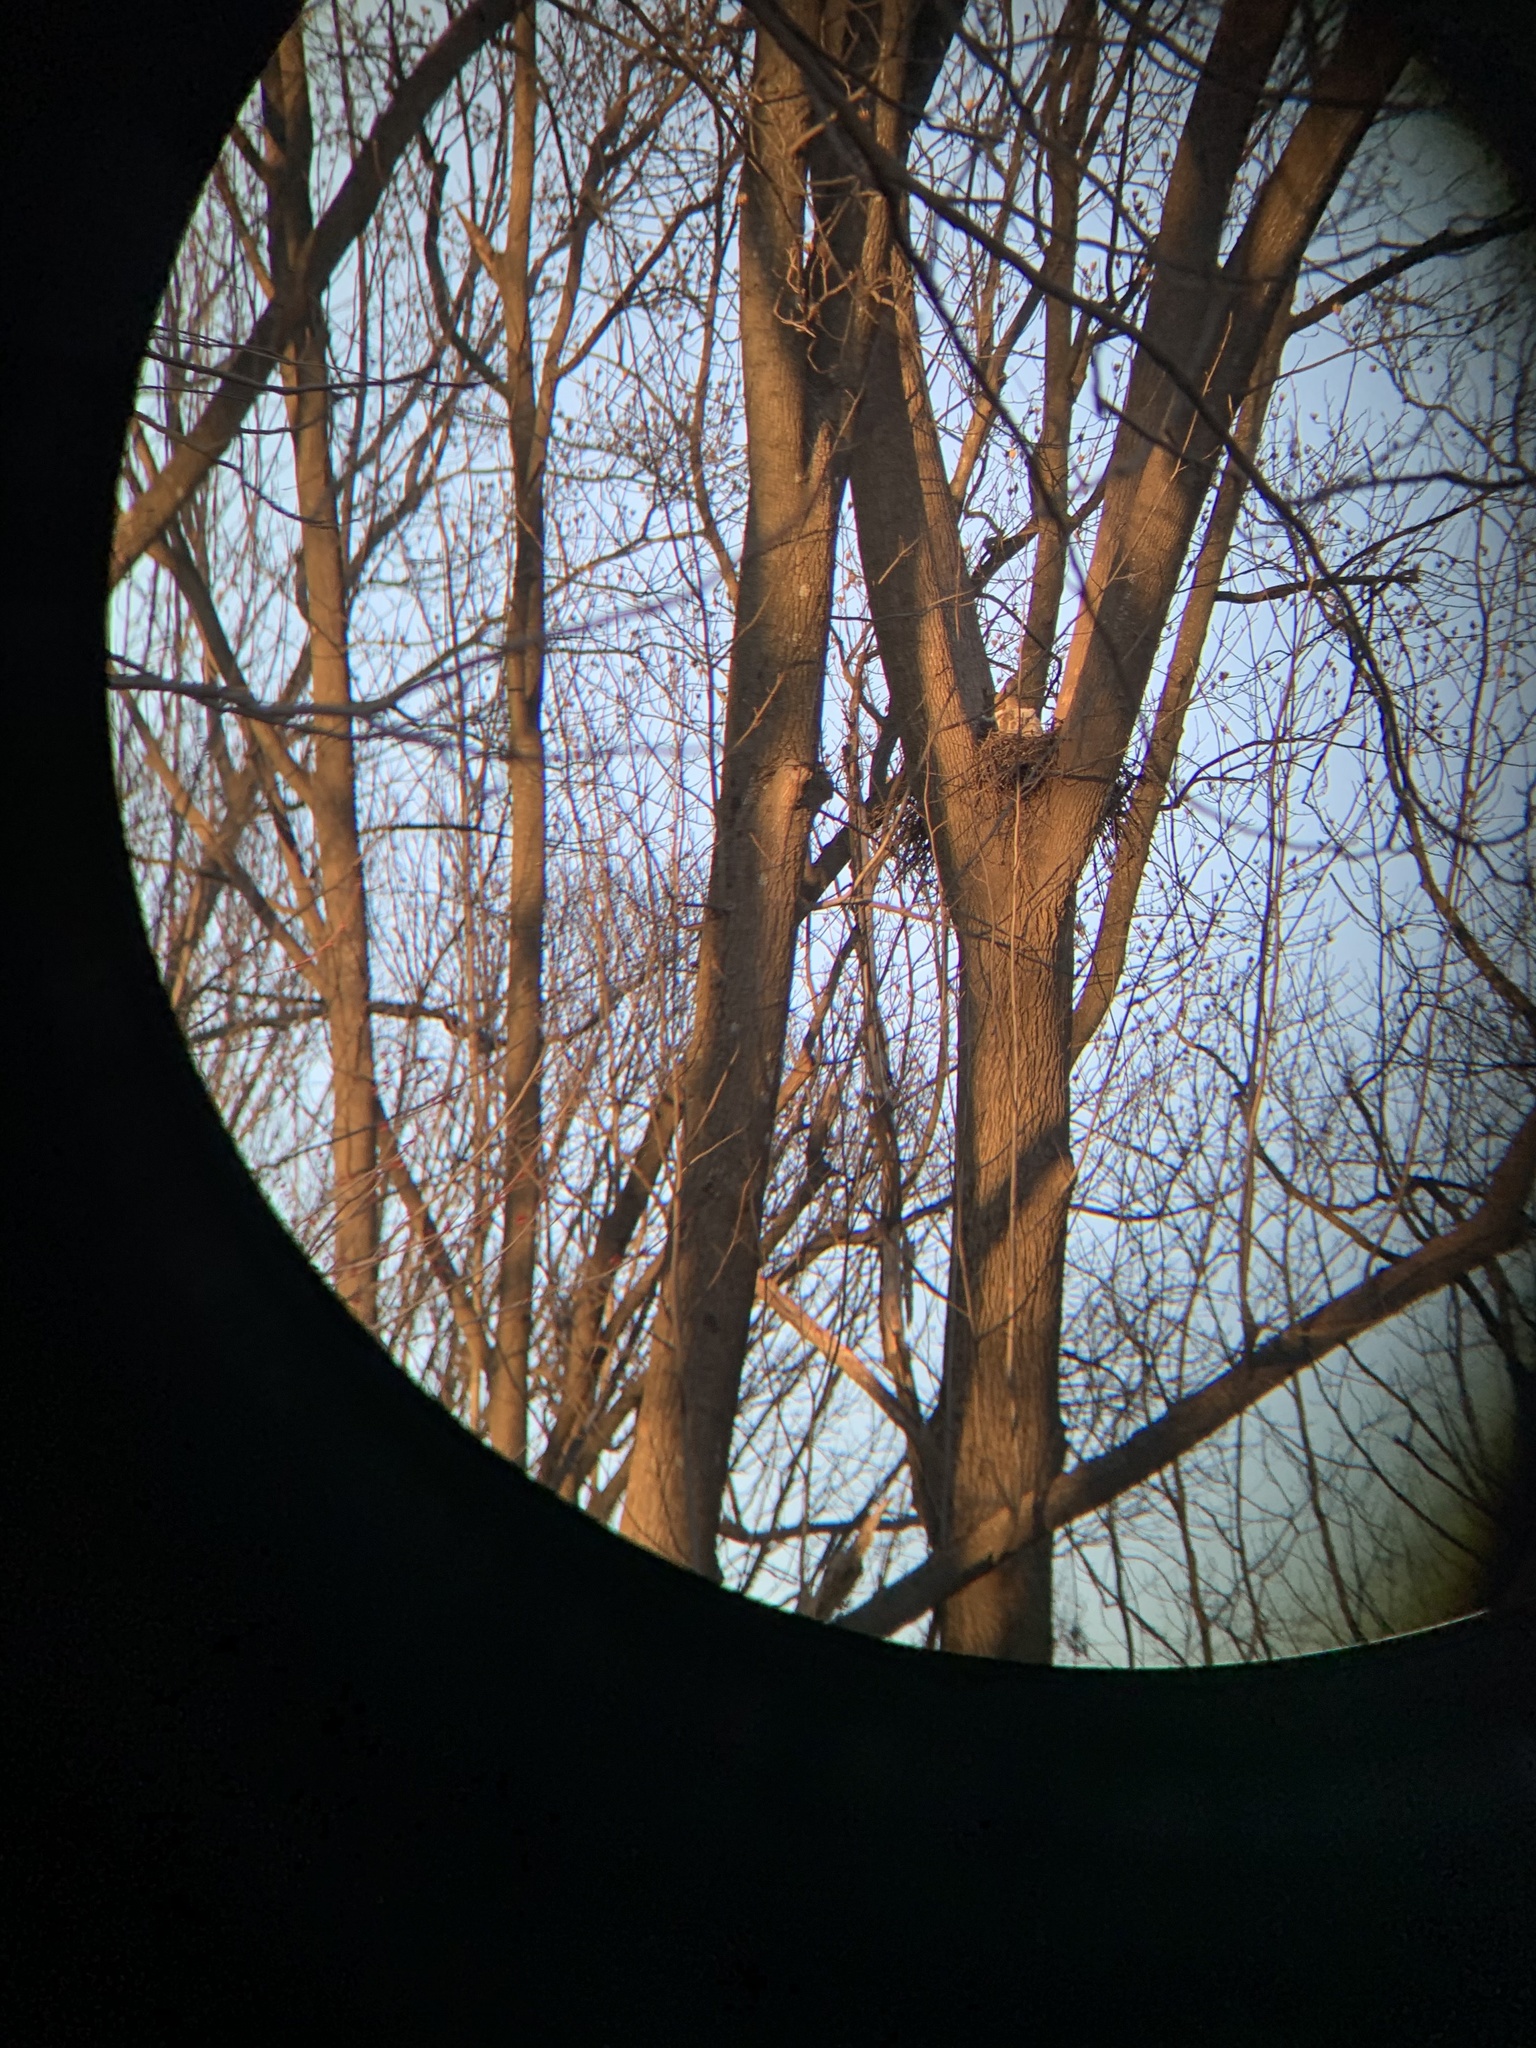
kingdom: Animalia
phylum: Chordata
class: Aves
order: Strigiformes
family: Strigidae
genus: Bubo
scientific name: Bubo virginianus
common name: Great horned owl
